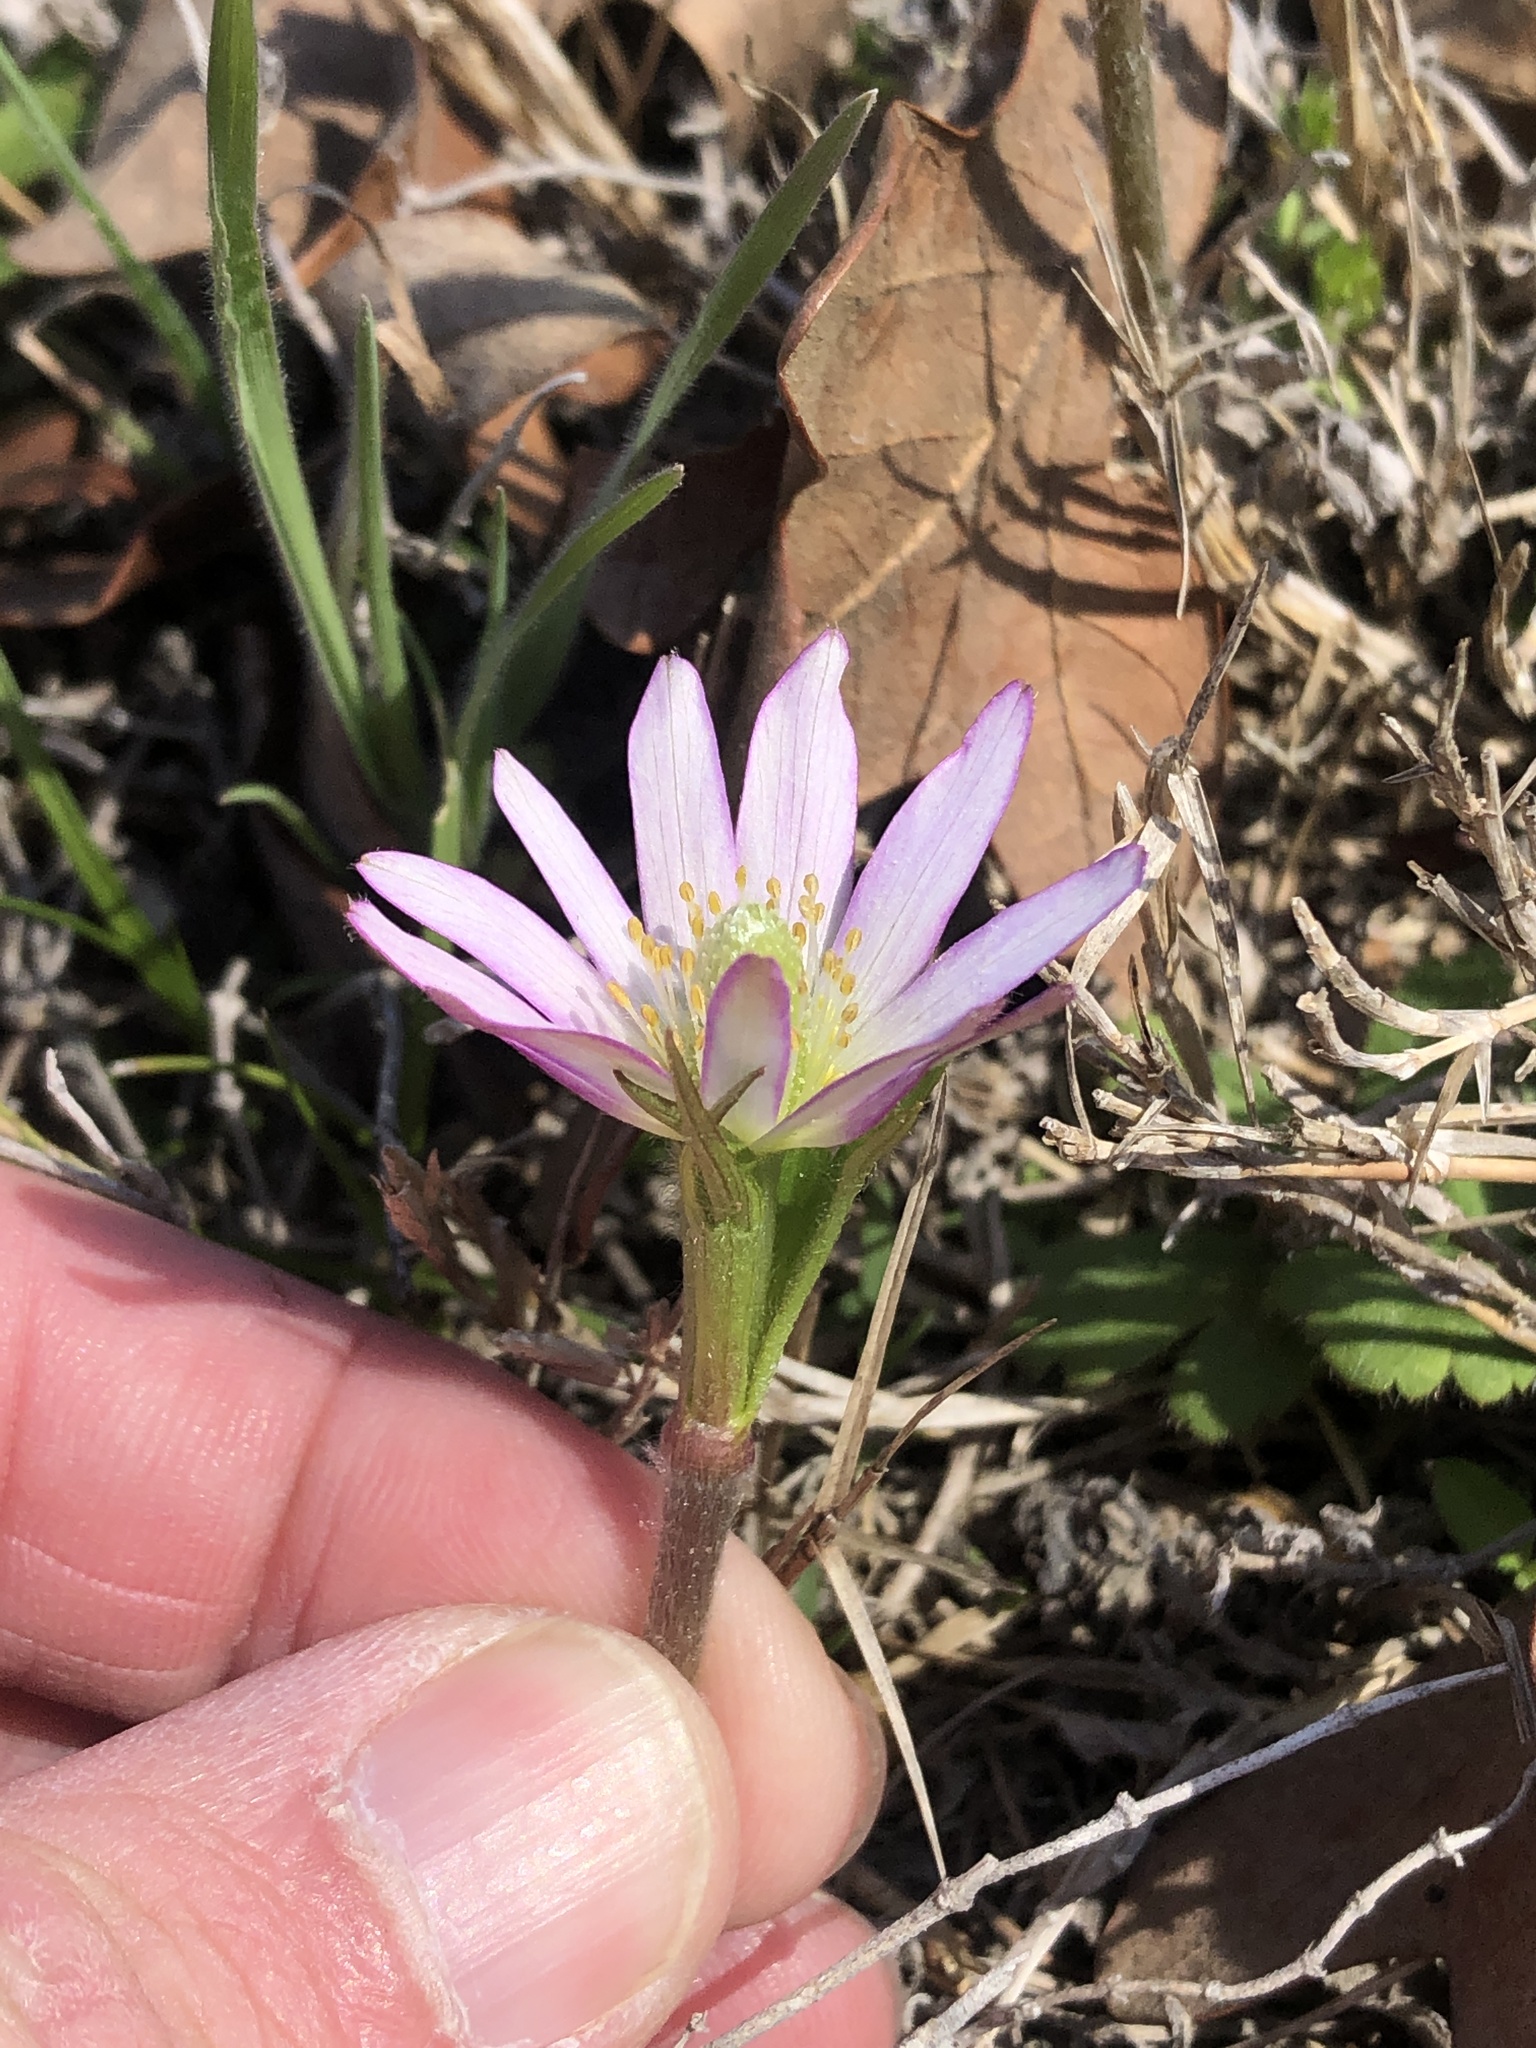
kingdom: Plantae
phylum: Tracheophyta
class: Magnoliopsida
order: Ranunculales
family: Ranunculaceae
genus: Anemone
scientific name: Anemone berlandieri
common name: Ten-petal anemone
